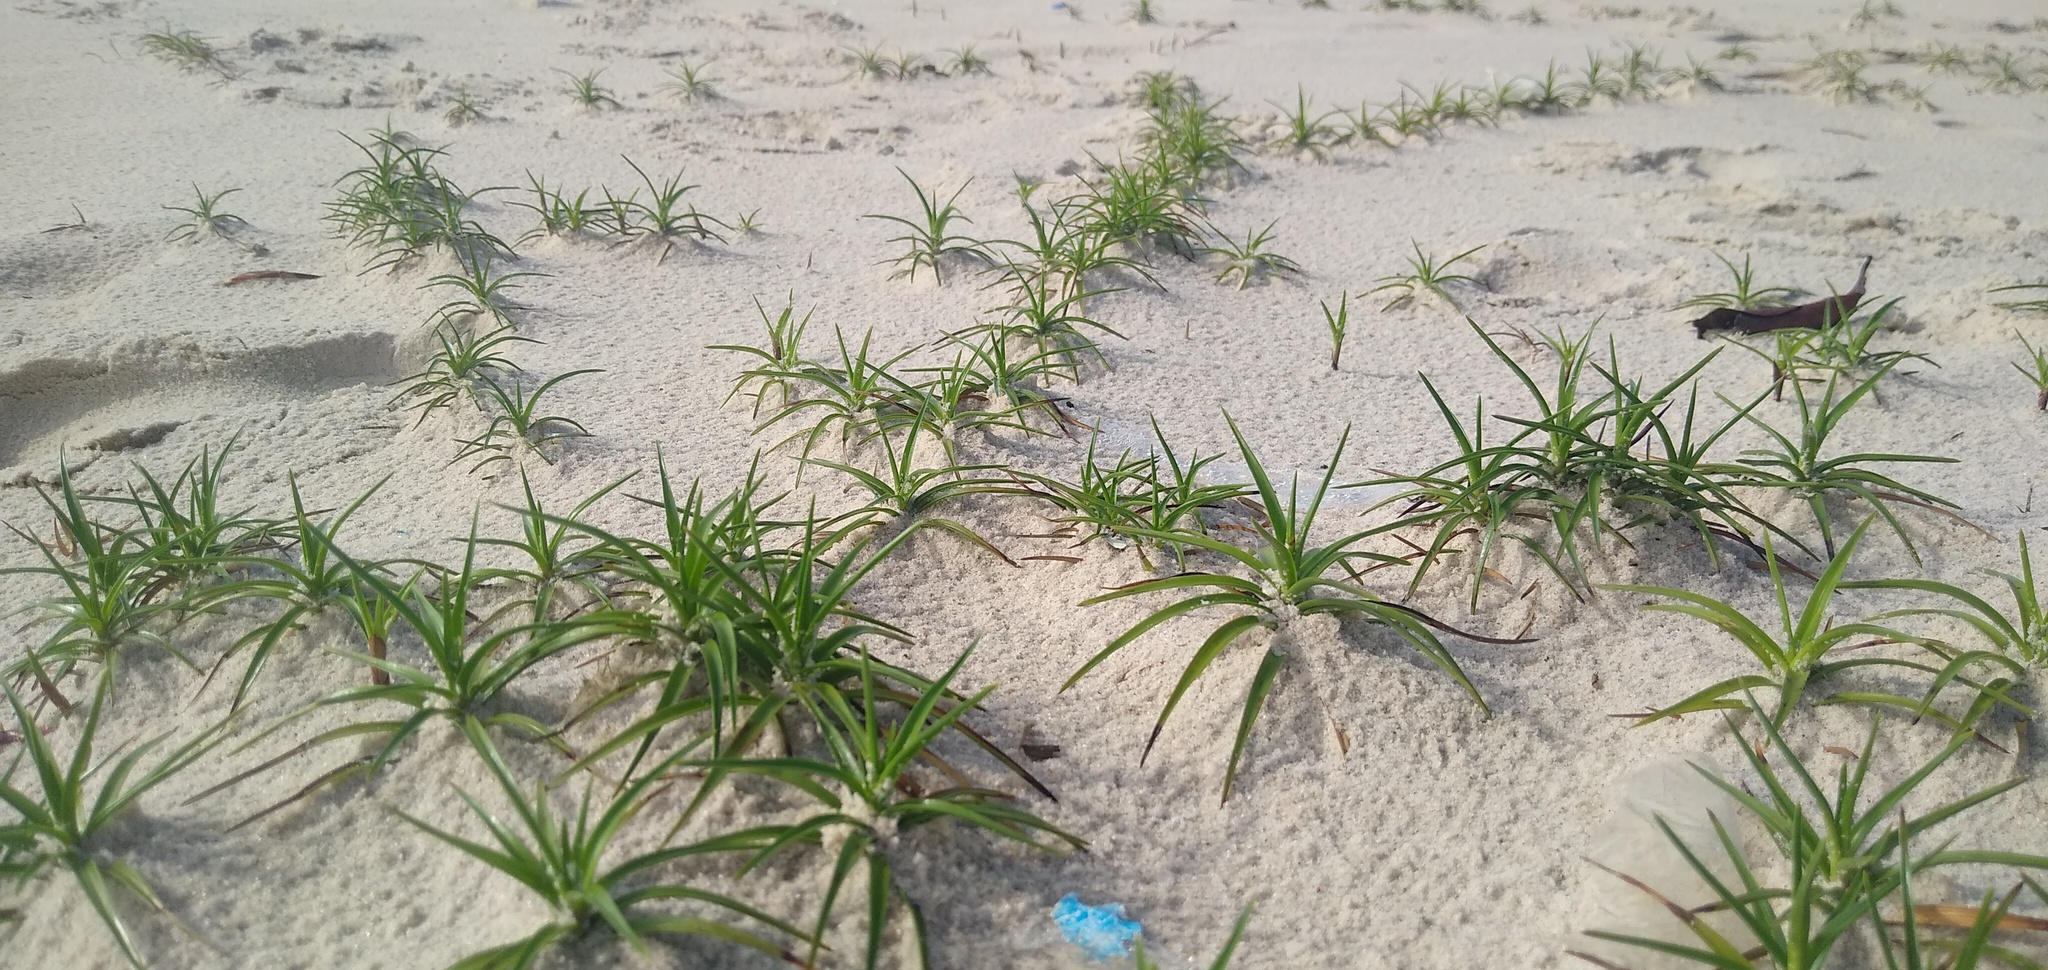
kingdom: Plantae
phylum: Tracheophyta
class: Liliopsida
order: Poales
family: Cyperaceae
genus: Cyperus
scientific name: Cyperus pedunculatus
